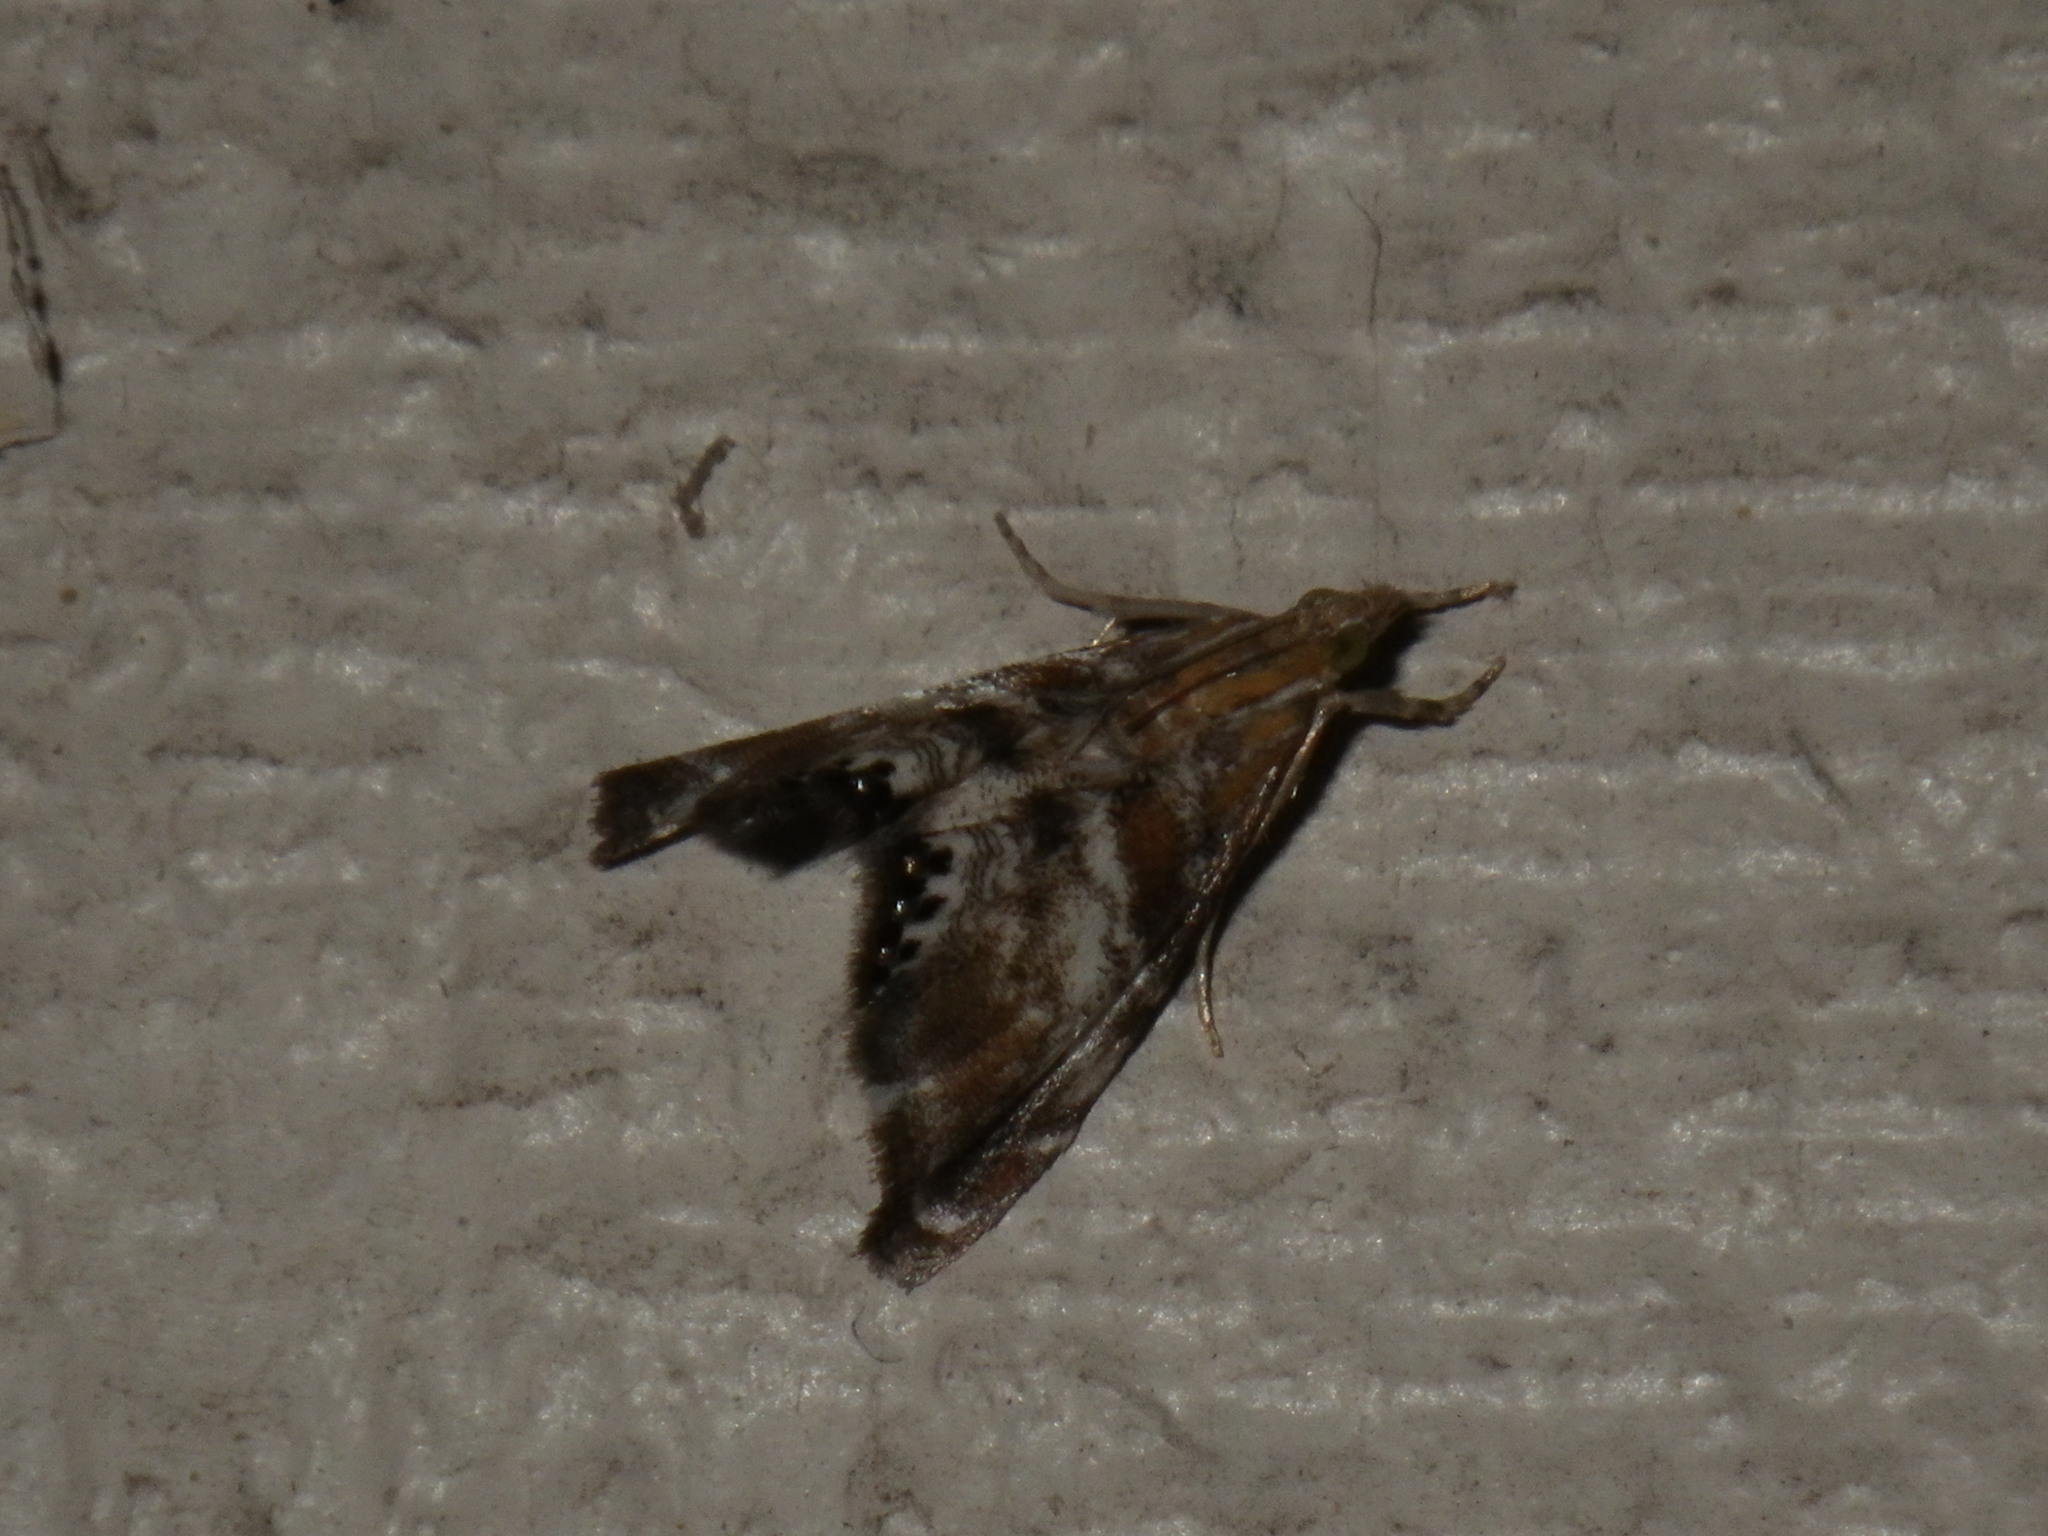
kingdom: Animalia
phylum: Arthropoda
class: Insecta
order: Lepidoptera
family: Crambidae
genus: Dicymolomia
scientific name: Dicymolomia metalliferalis
